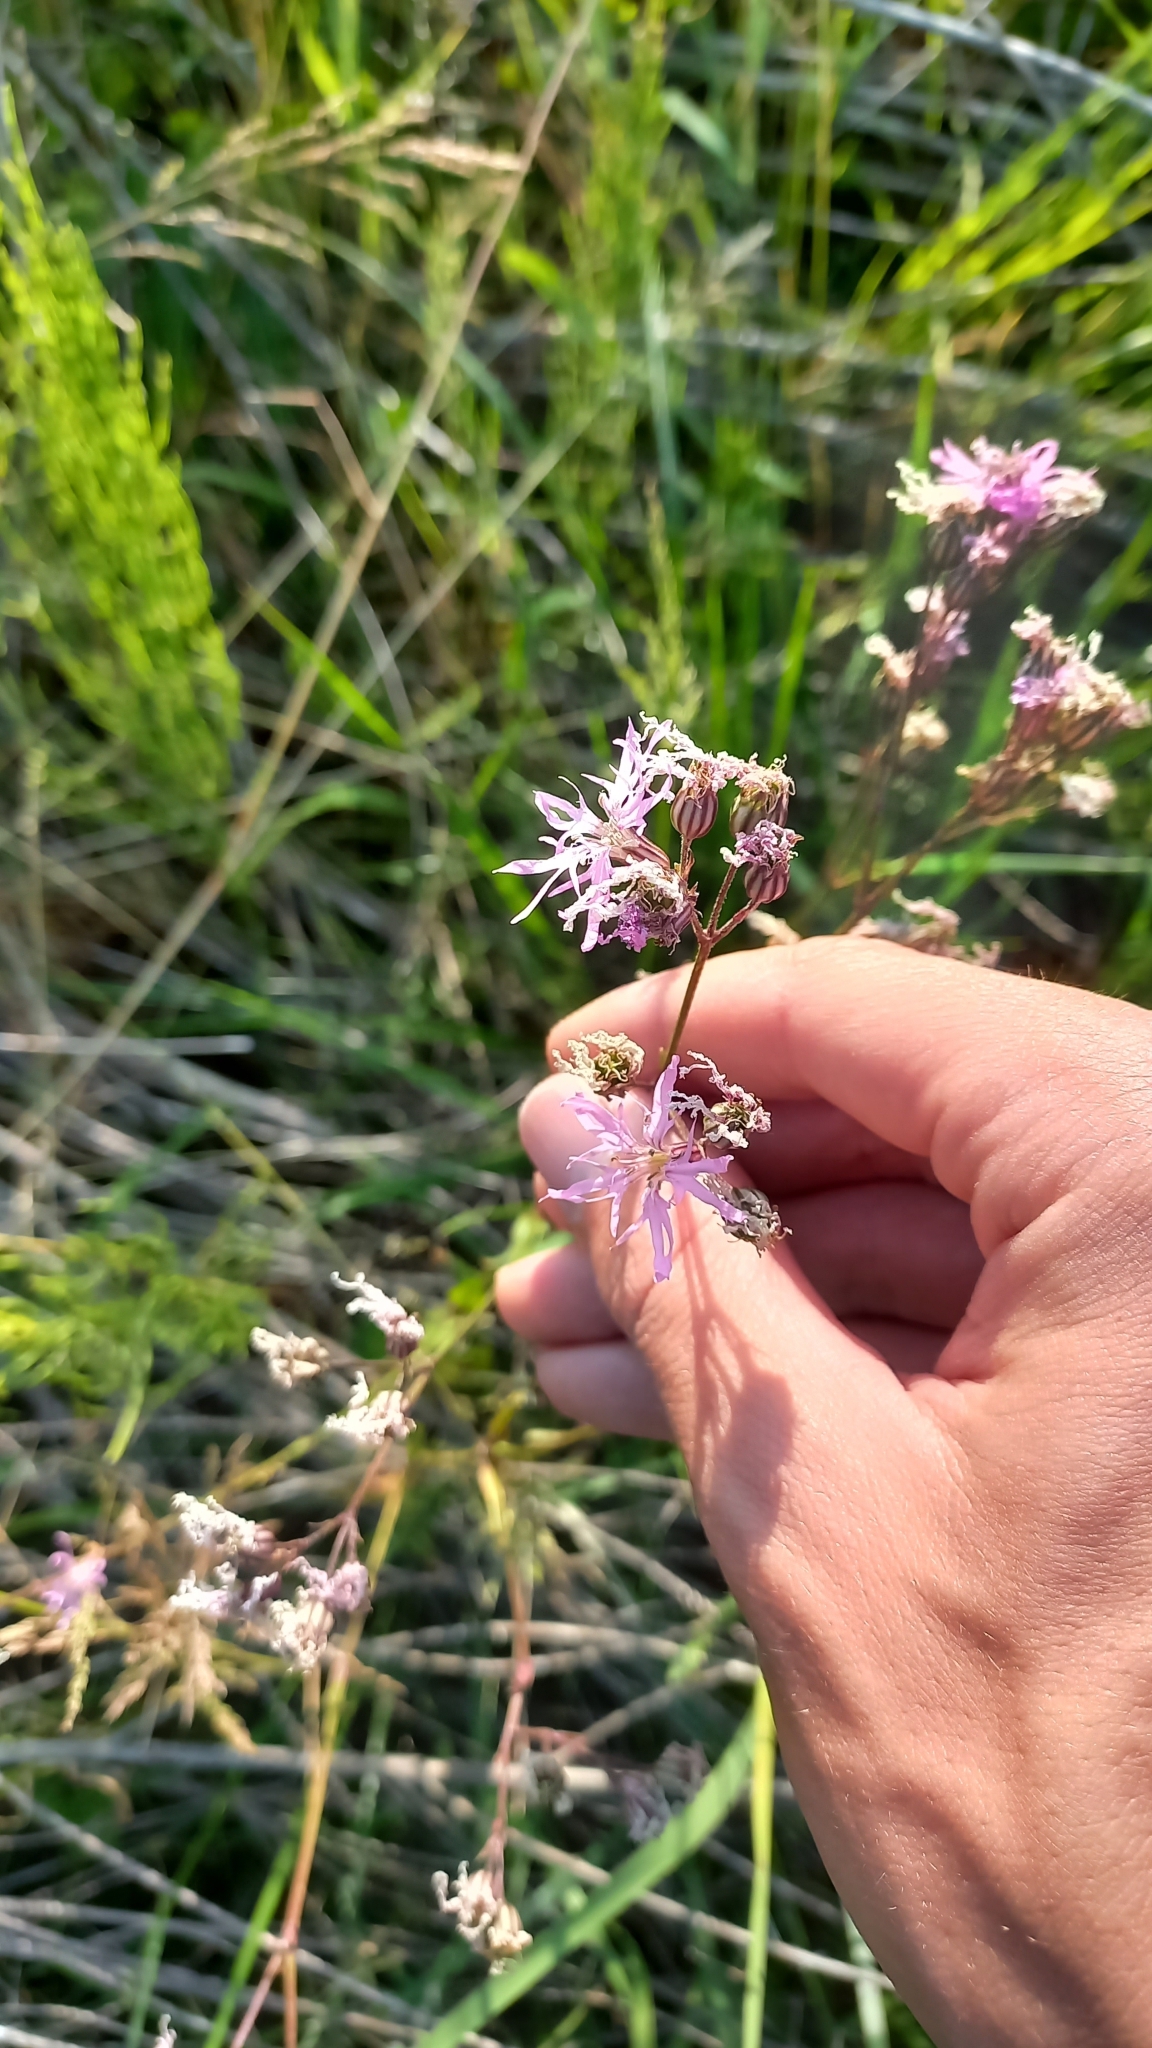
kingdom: Plantae
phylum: Tracheophyta
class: Magnoliopsida
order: Caryophyllales
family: Caryophyllaceae
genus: Silene
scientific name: Silene flos-cuculi
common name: Ragged-robin
